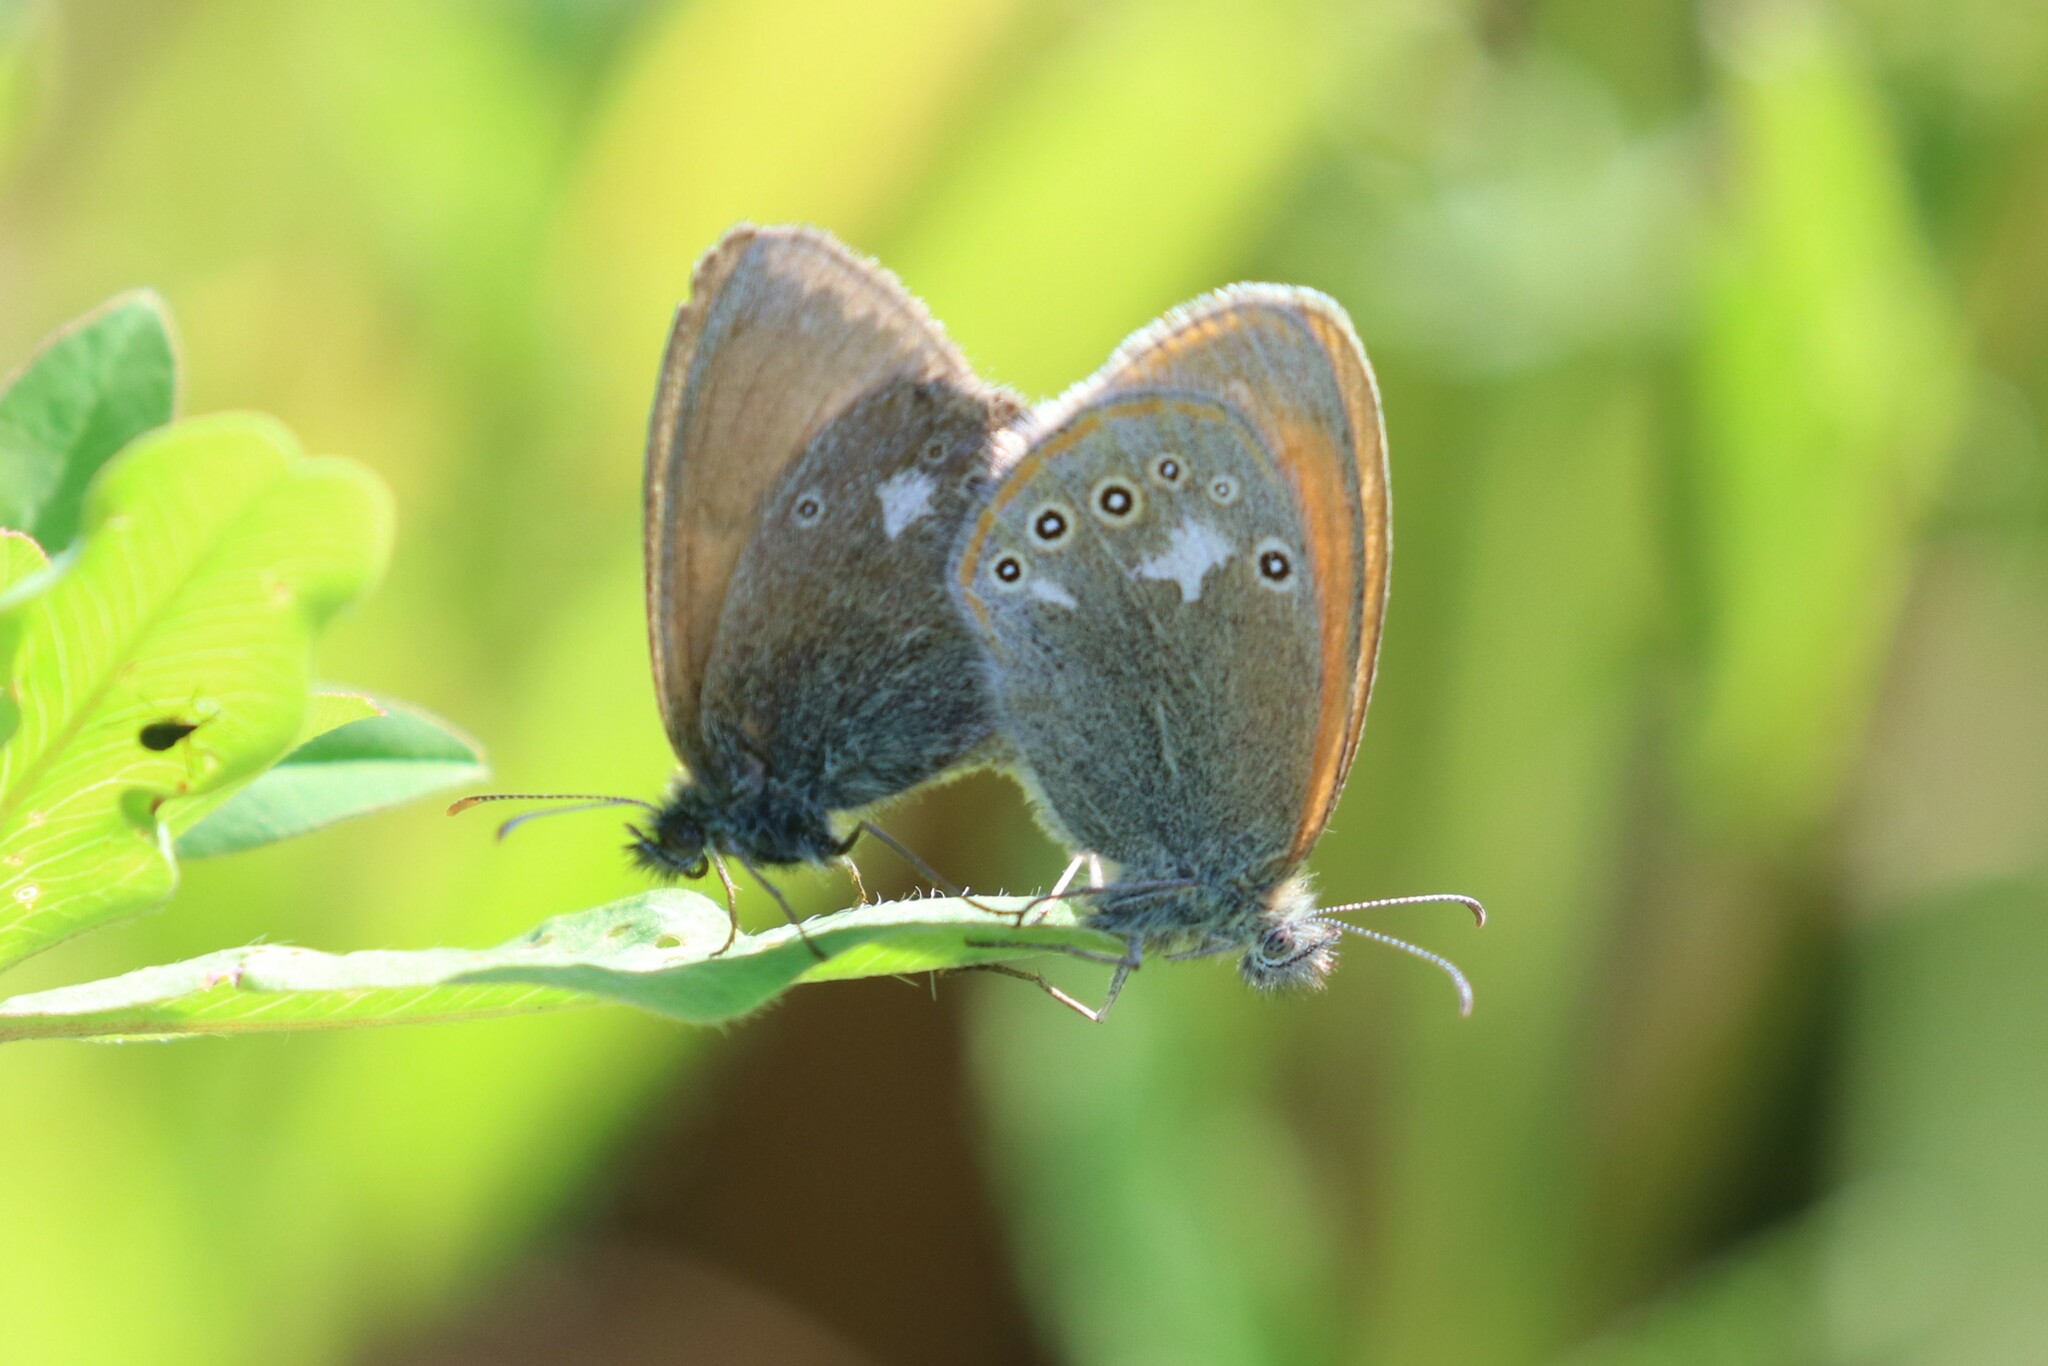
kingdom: Animalia
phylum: Arthropoda
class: Insecta
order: Lepidoptera
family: Nymphalidae
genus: Coenonympha
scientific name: Coenonympha iphis
